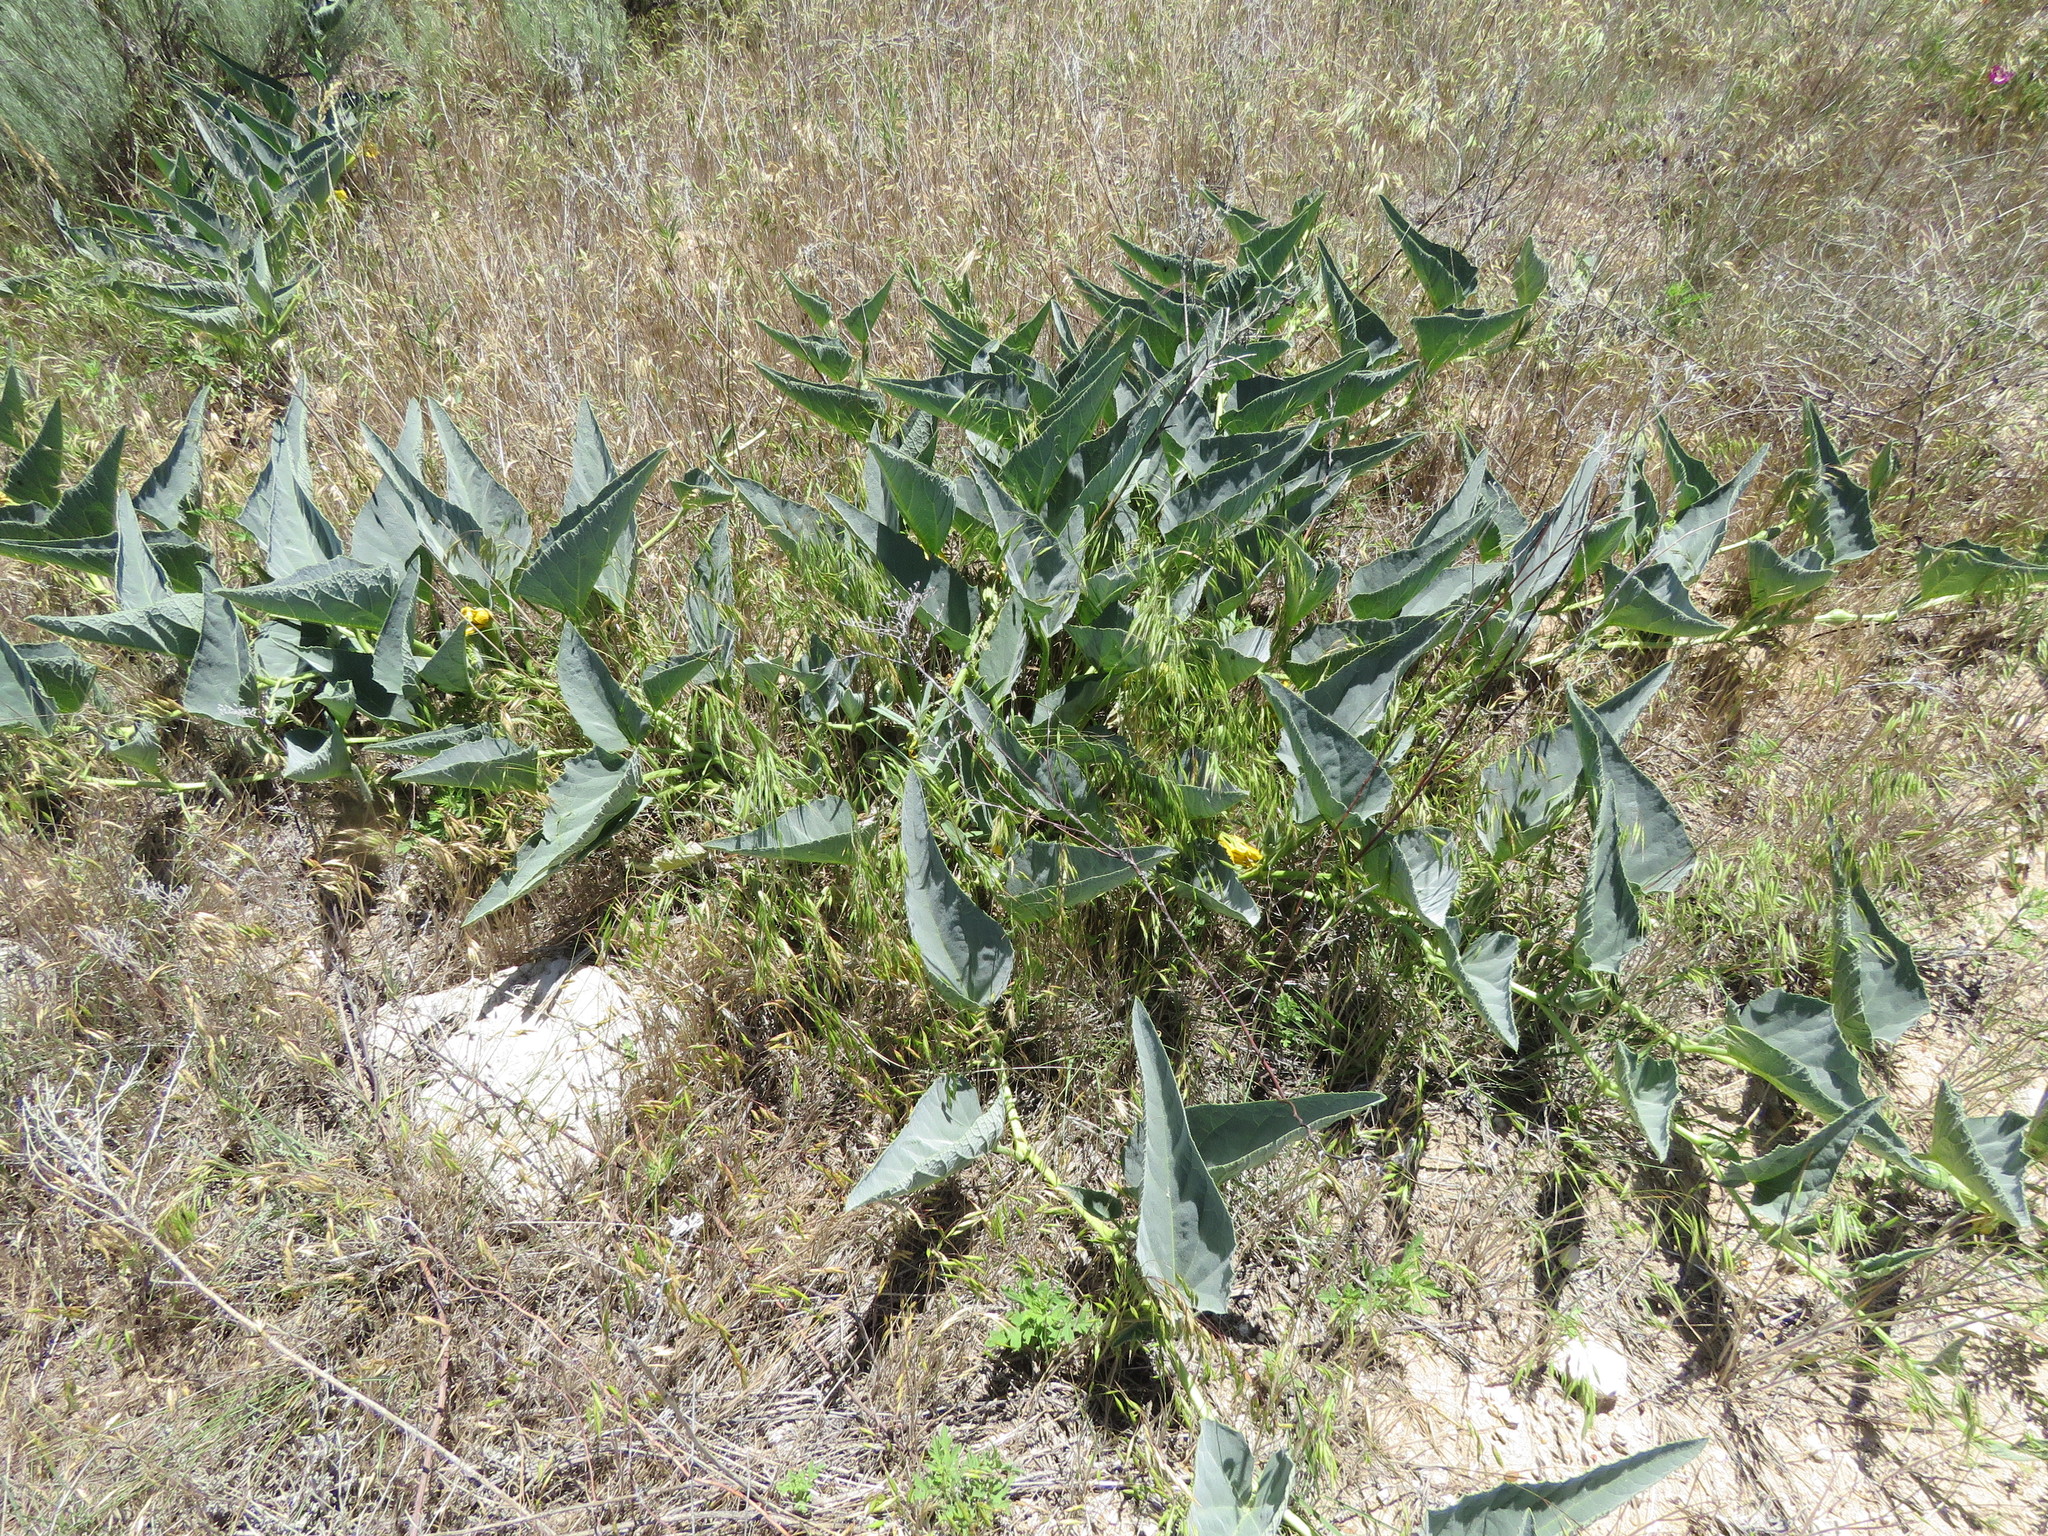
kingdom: Plantae
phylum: Tracheophyta
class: Magnoliopsida
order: Cucurbitales
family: Cucurbitaceae
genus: Cucurbita
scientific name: Cucurbita foetidissima
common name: Buffalo gourd
